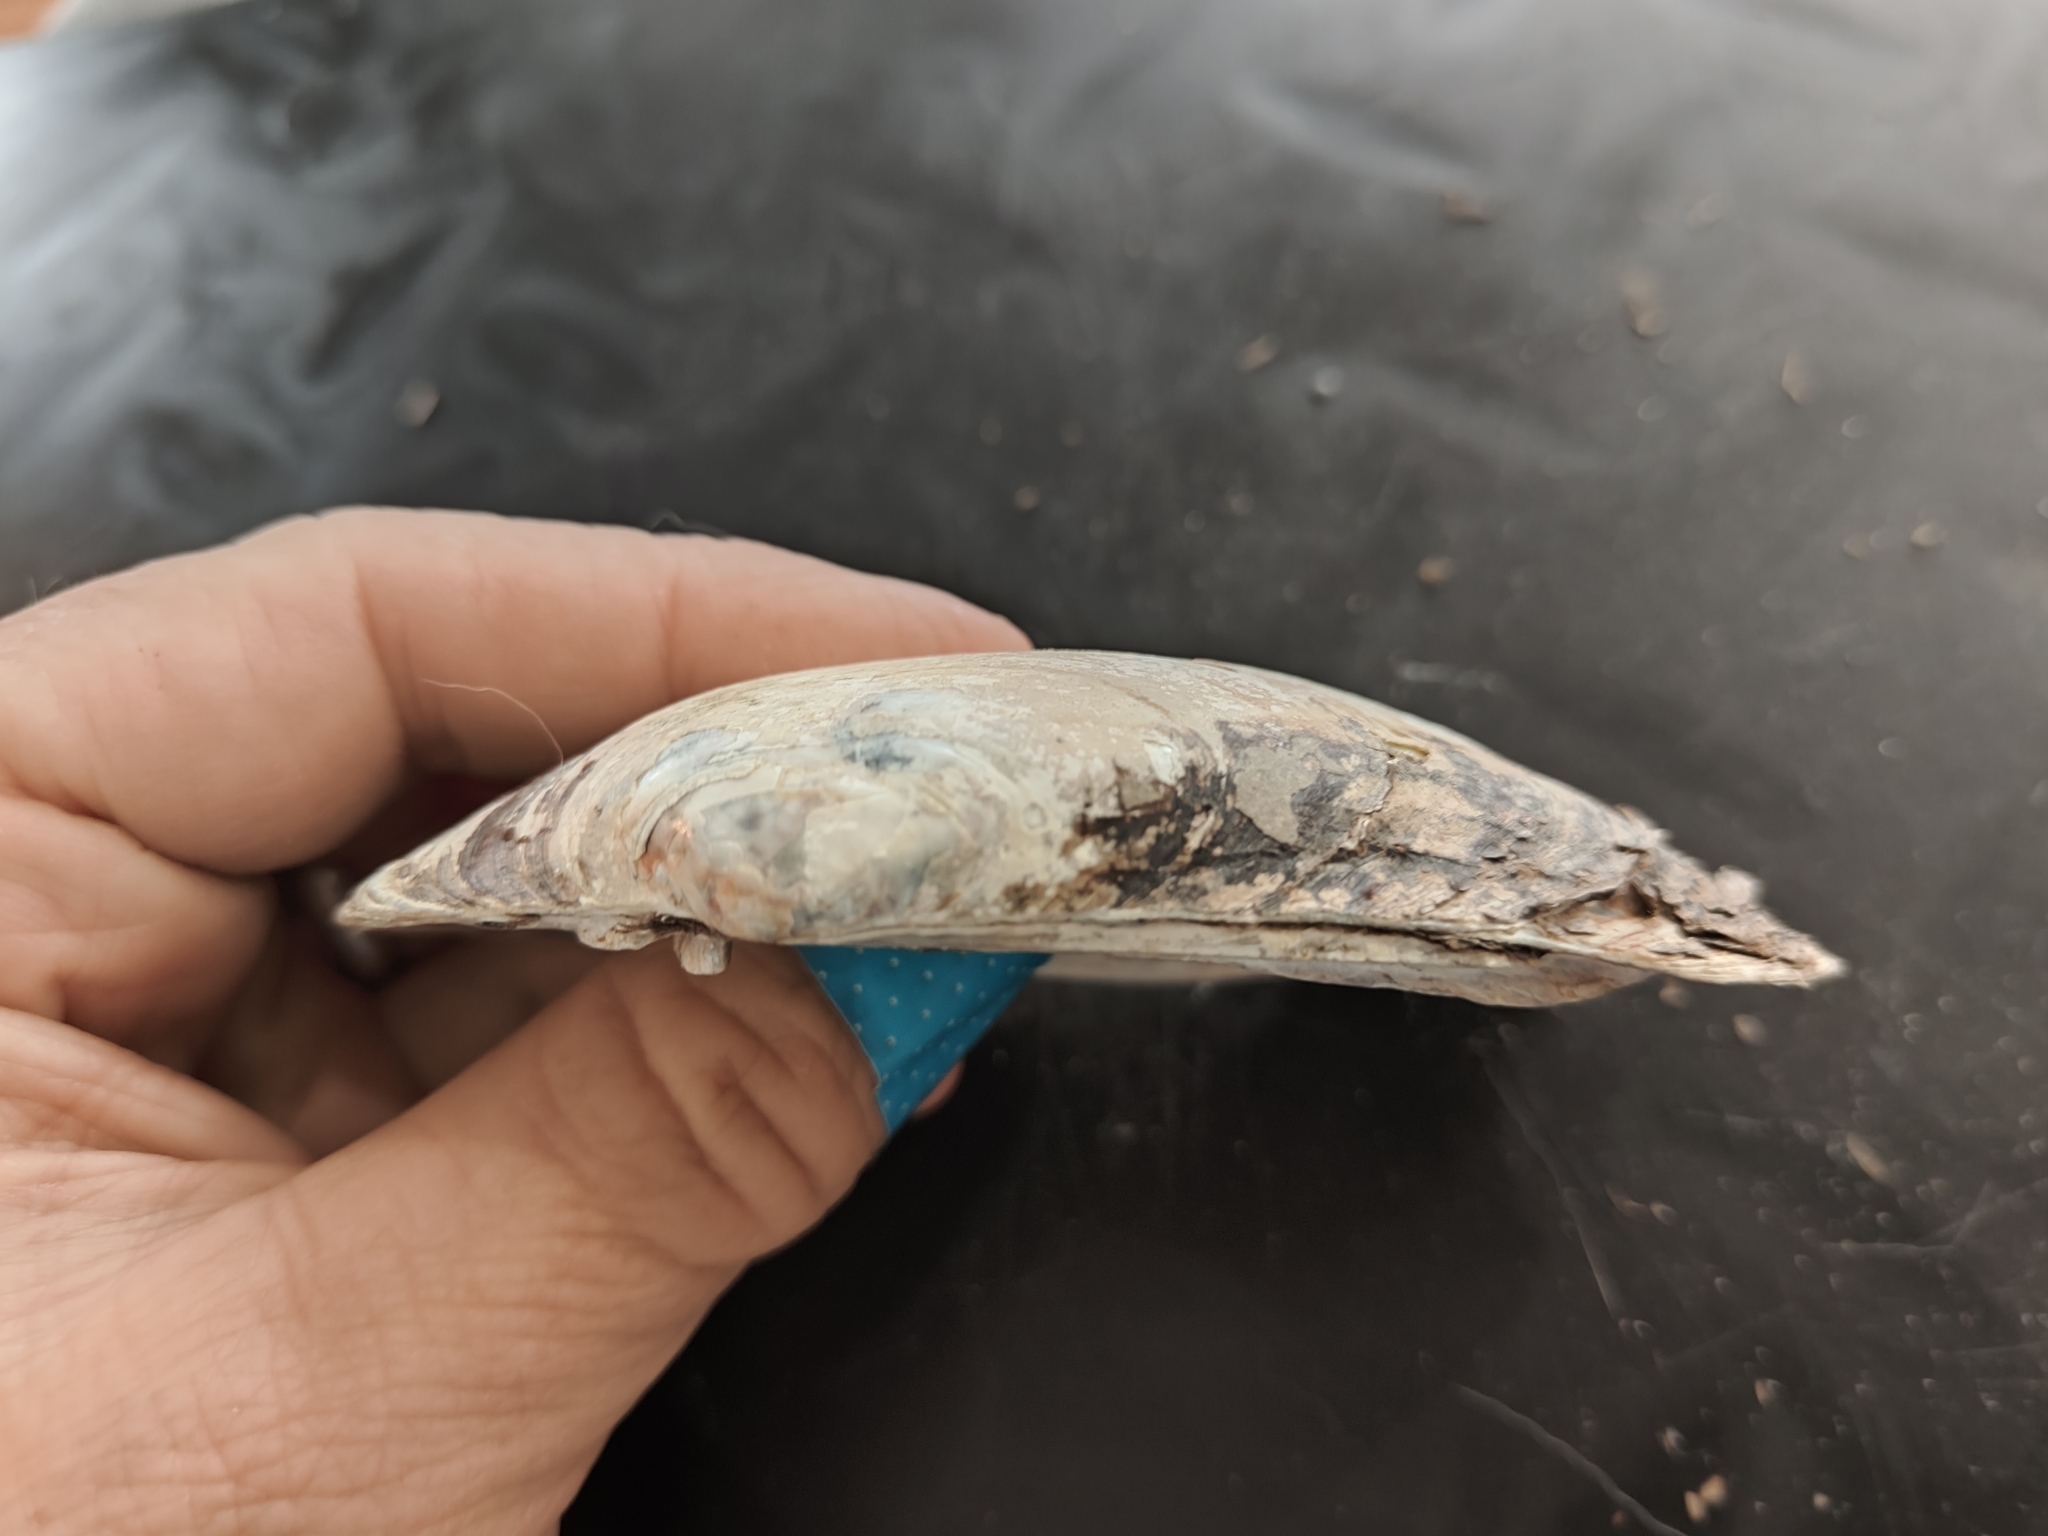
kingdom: Animalia
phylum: Mollusca
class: Bivalvia
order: Unionida
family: Unionidae
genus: Lampsilis
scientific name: Lampsilis siliquoidea
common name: Fatmucket
